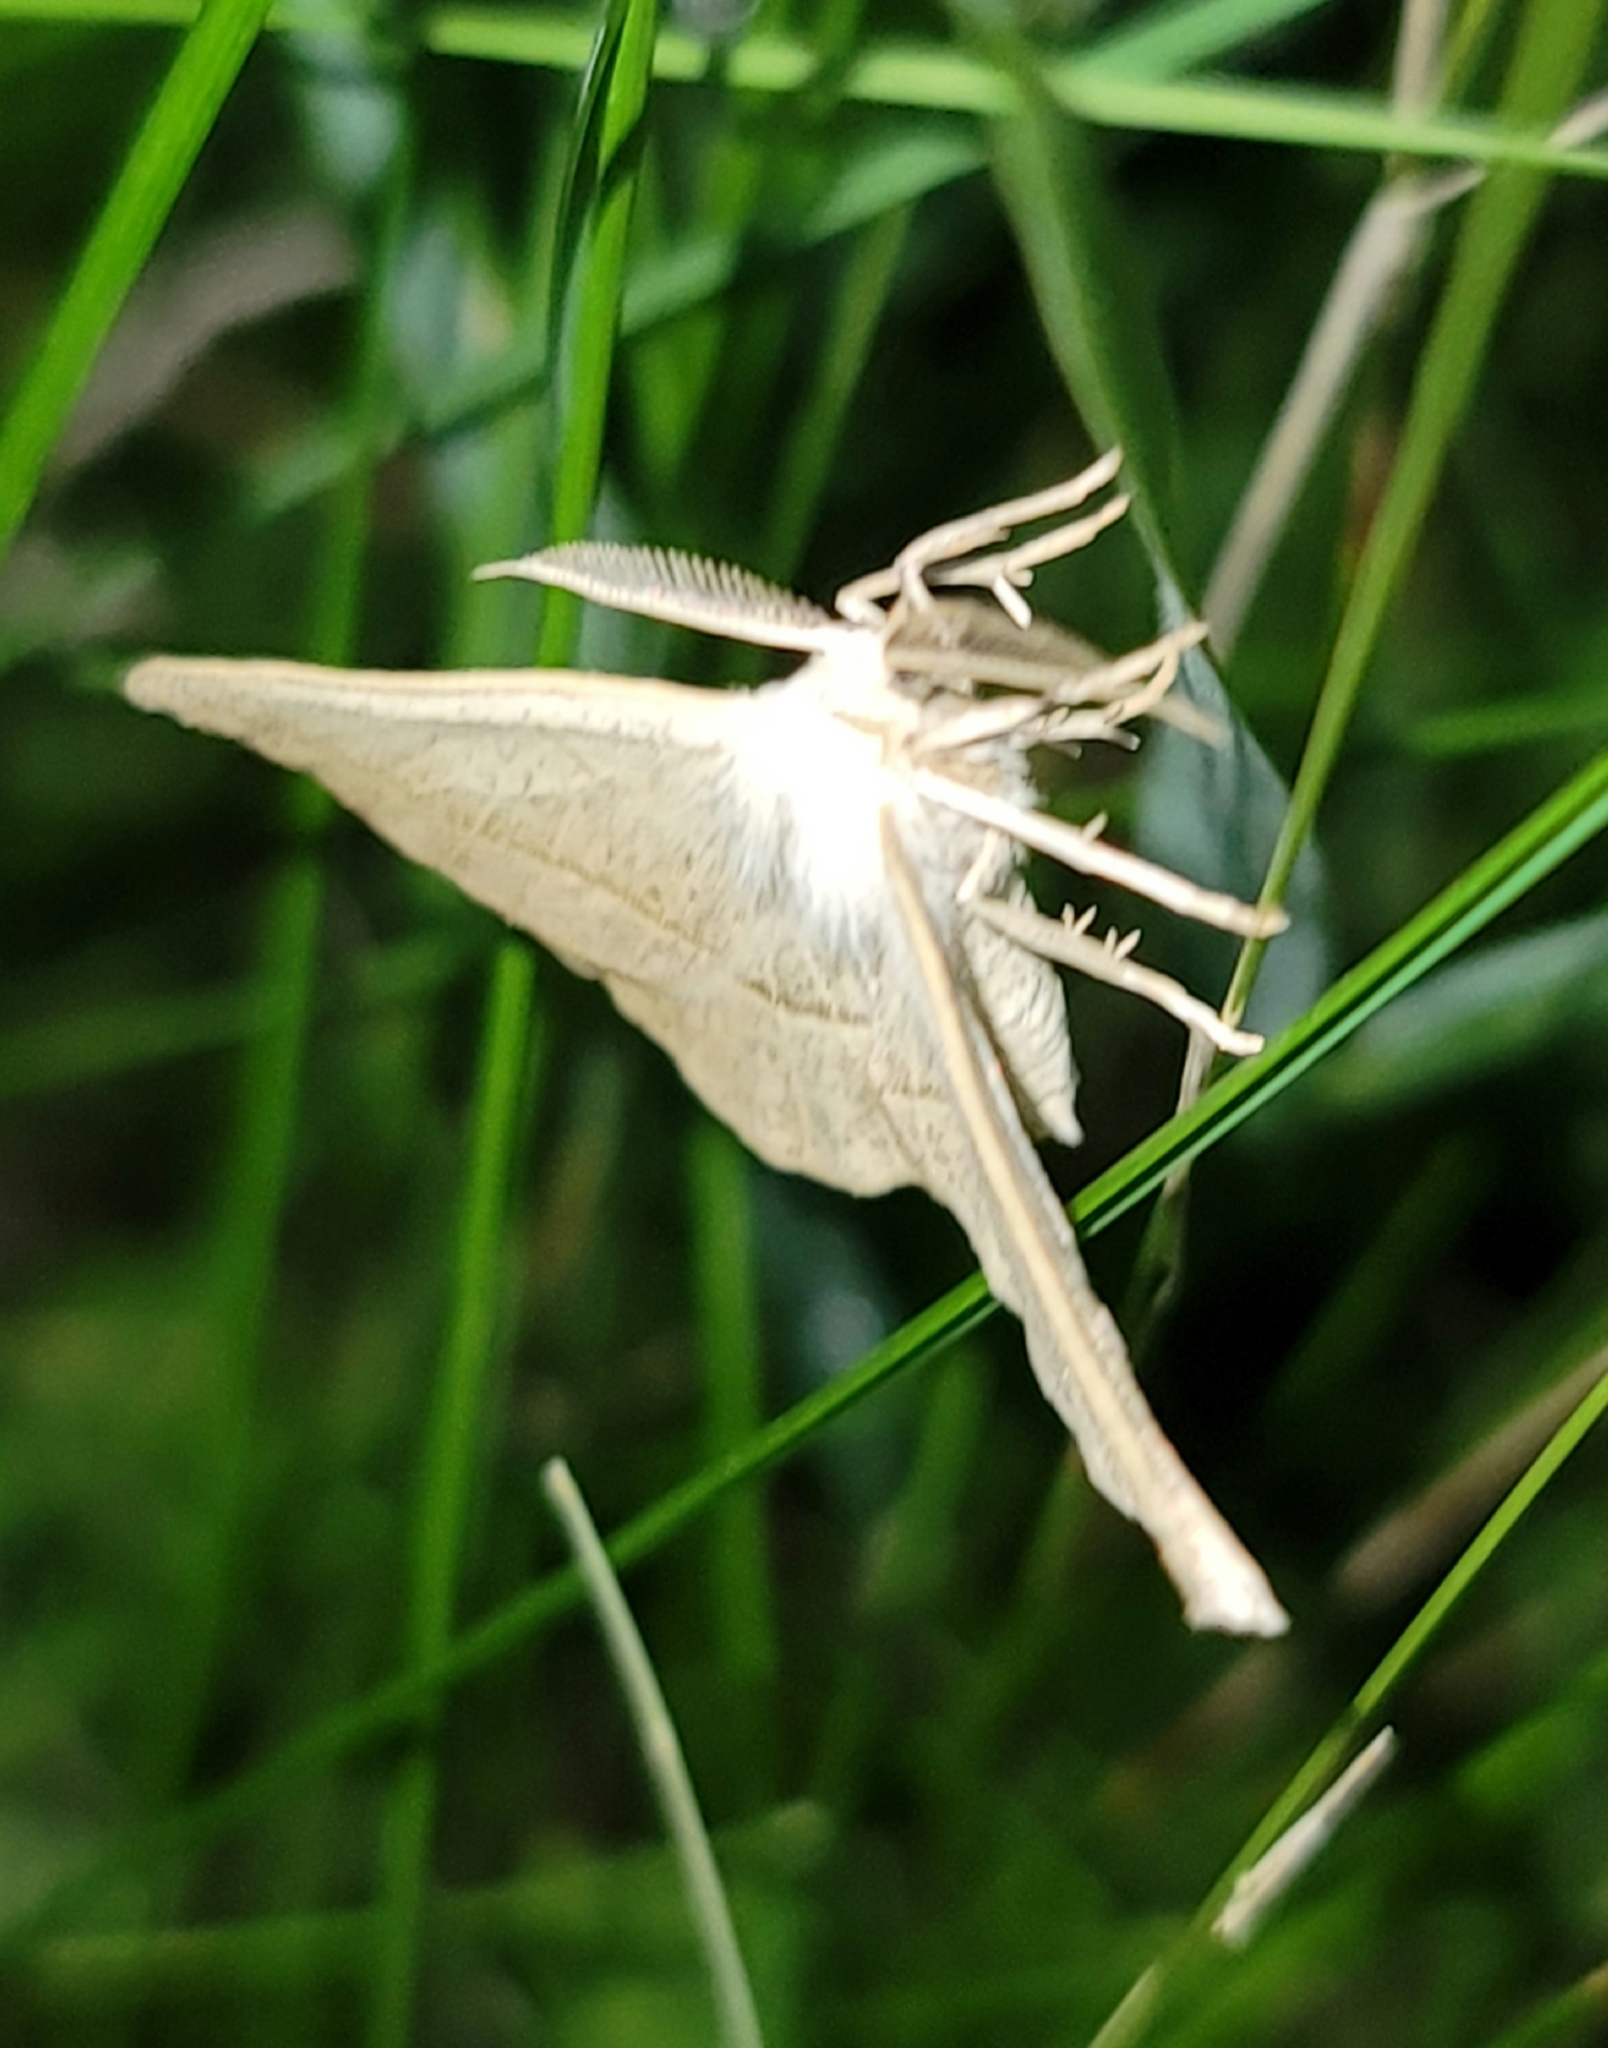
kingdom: Animalia
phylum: Arthropoda
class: Insecta
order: Lepidoptera
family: Geometridae
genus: Eusarca
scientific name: Eusarca confusaria
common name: Confused eusarca
